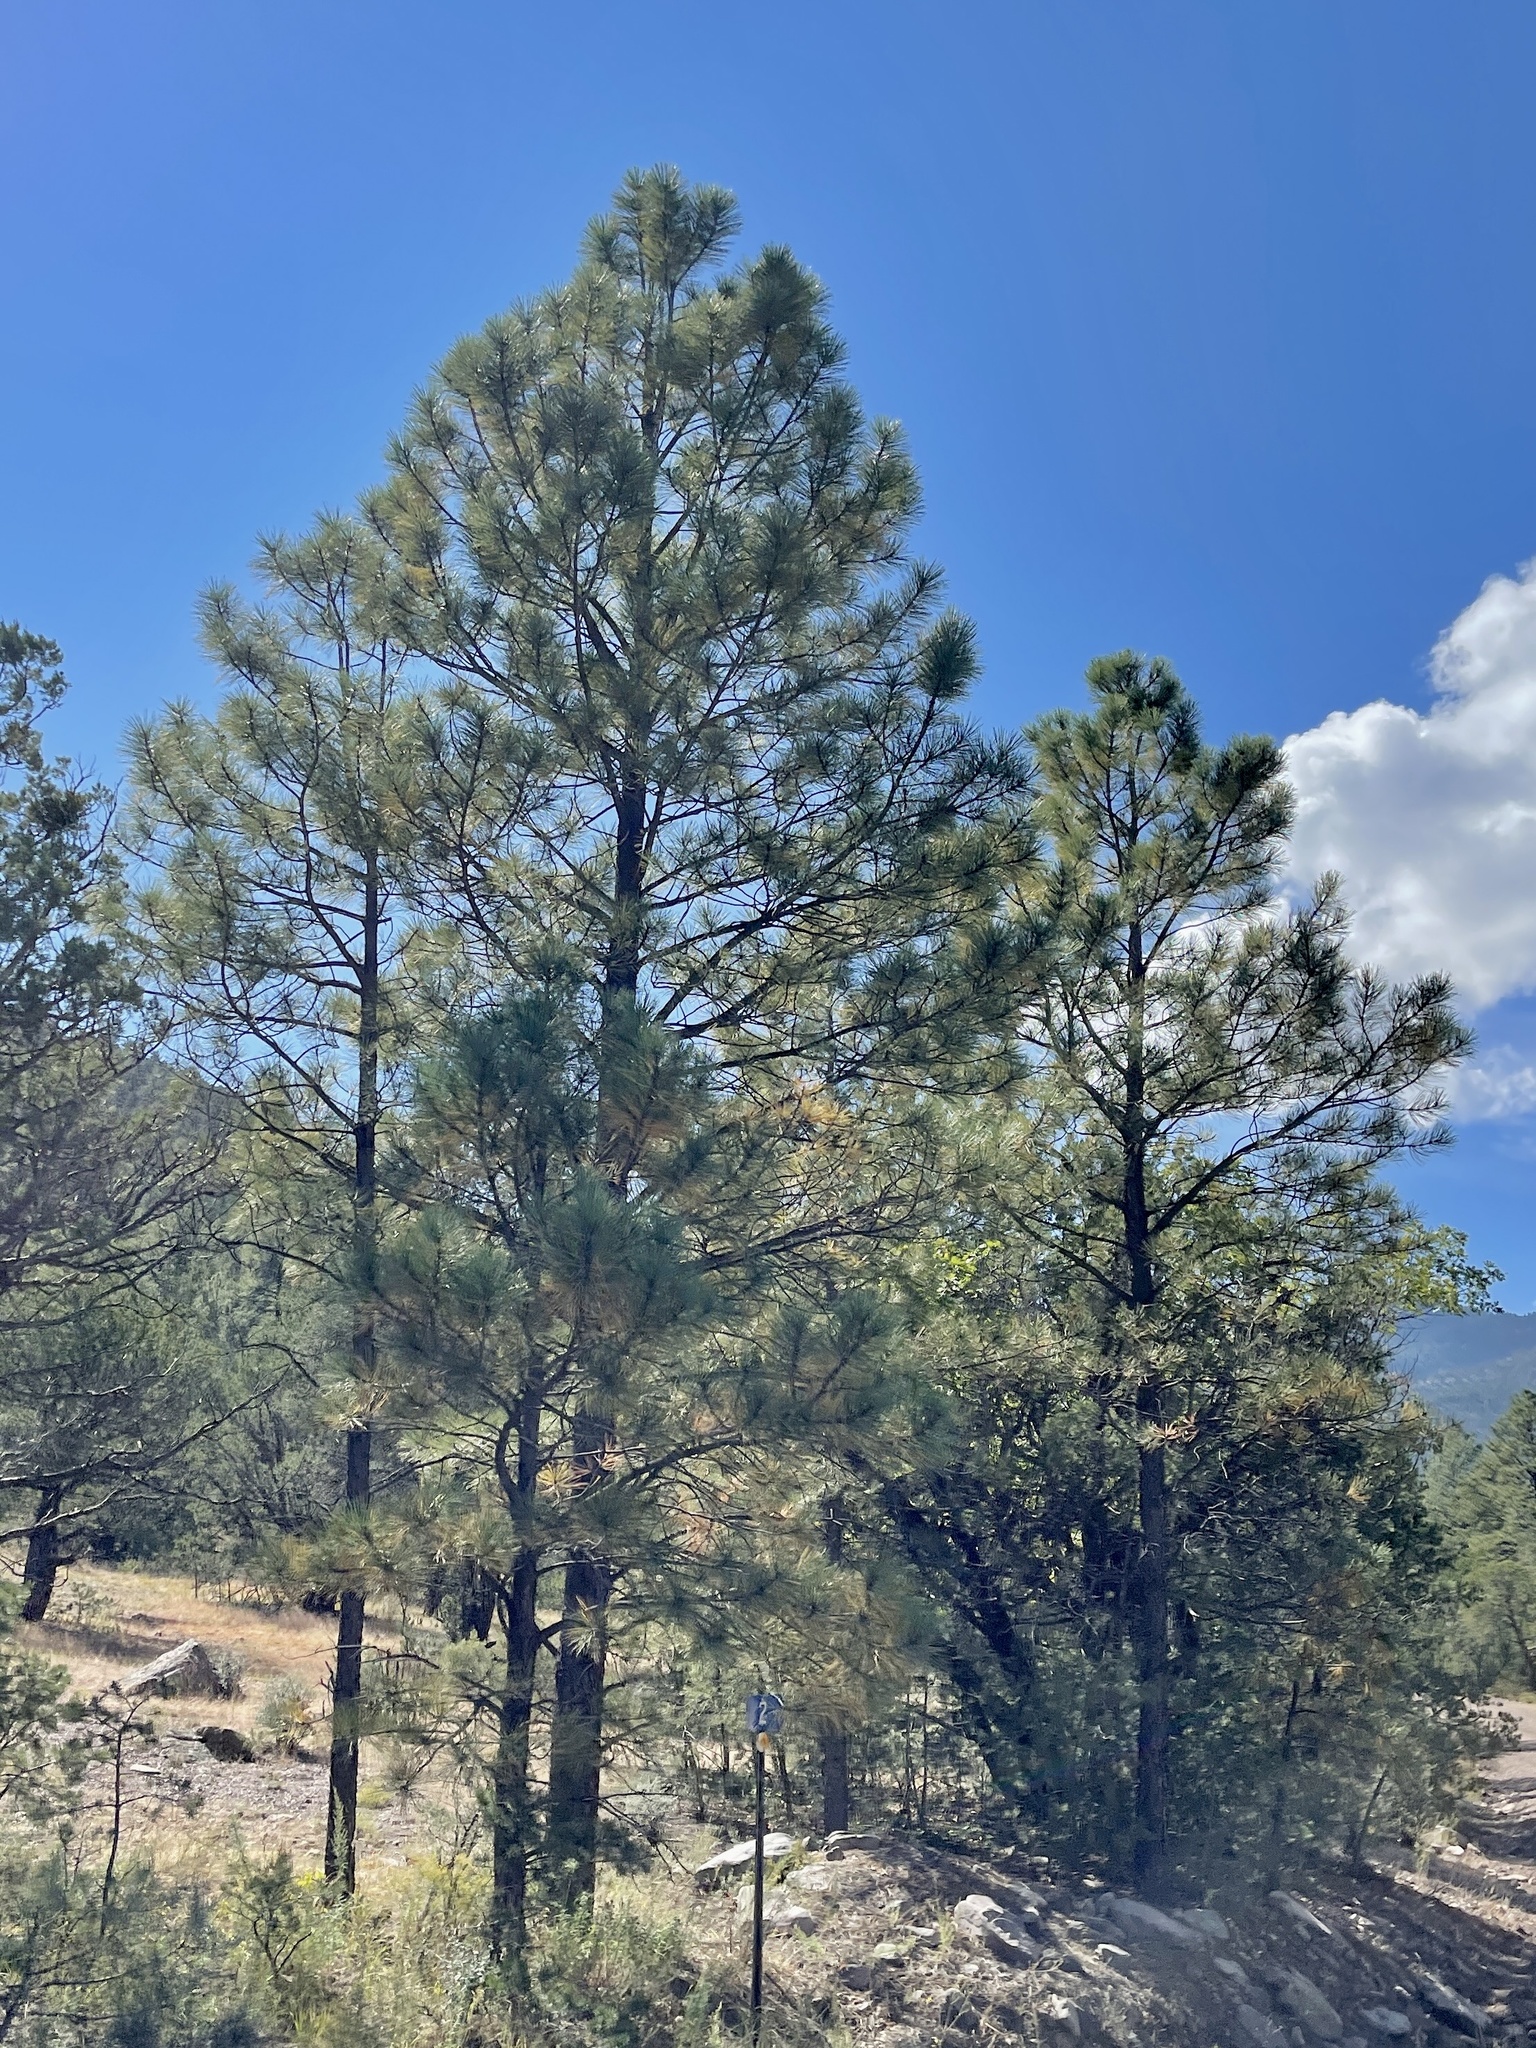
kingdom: Plantae
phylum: Tracheophyta
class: Pinopsida
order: Pinales
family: Pinaceae
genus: Pinus
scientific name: Pinus ponderosa
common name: Western yellow-pine
